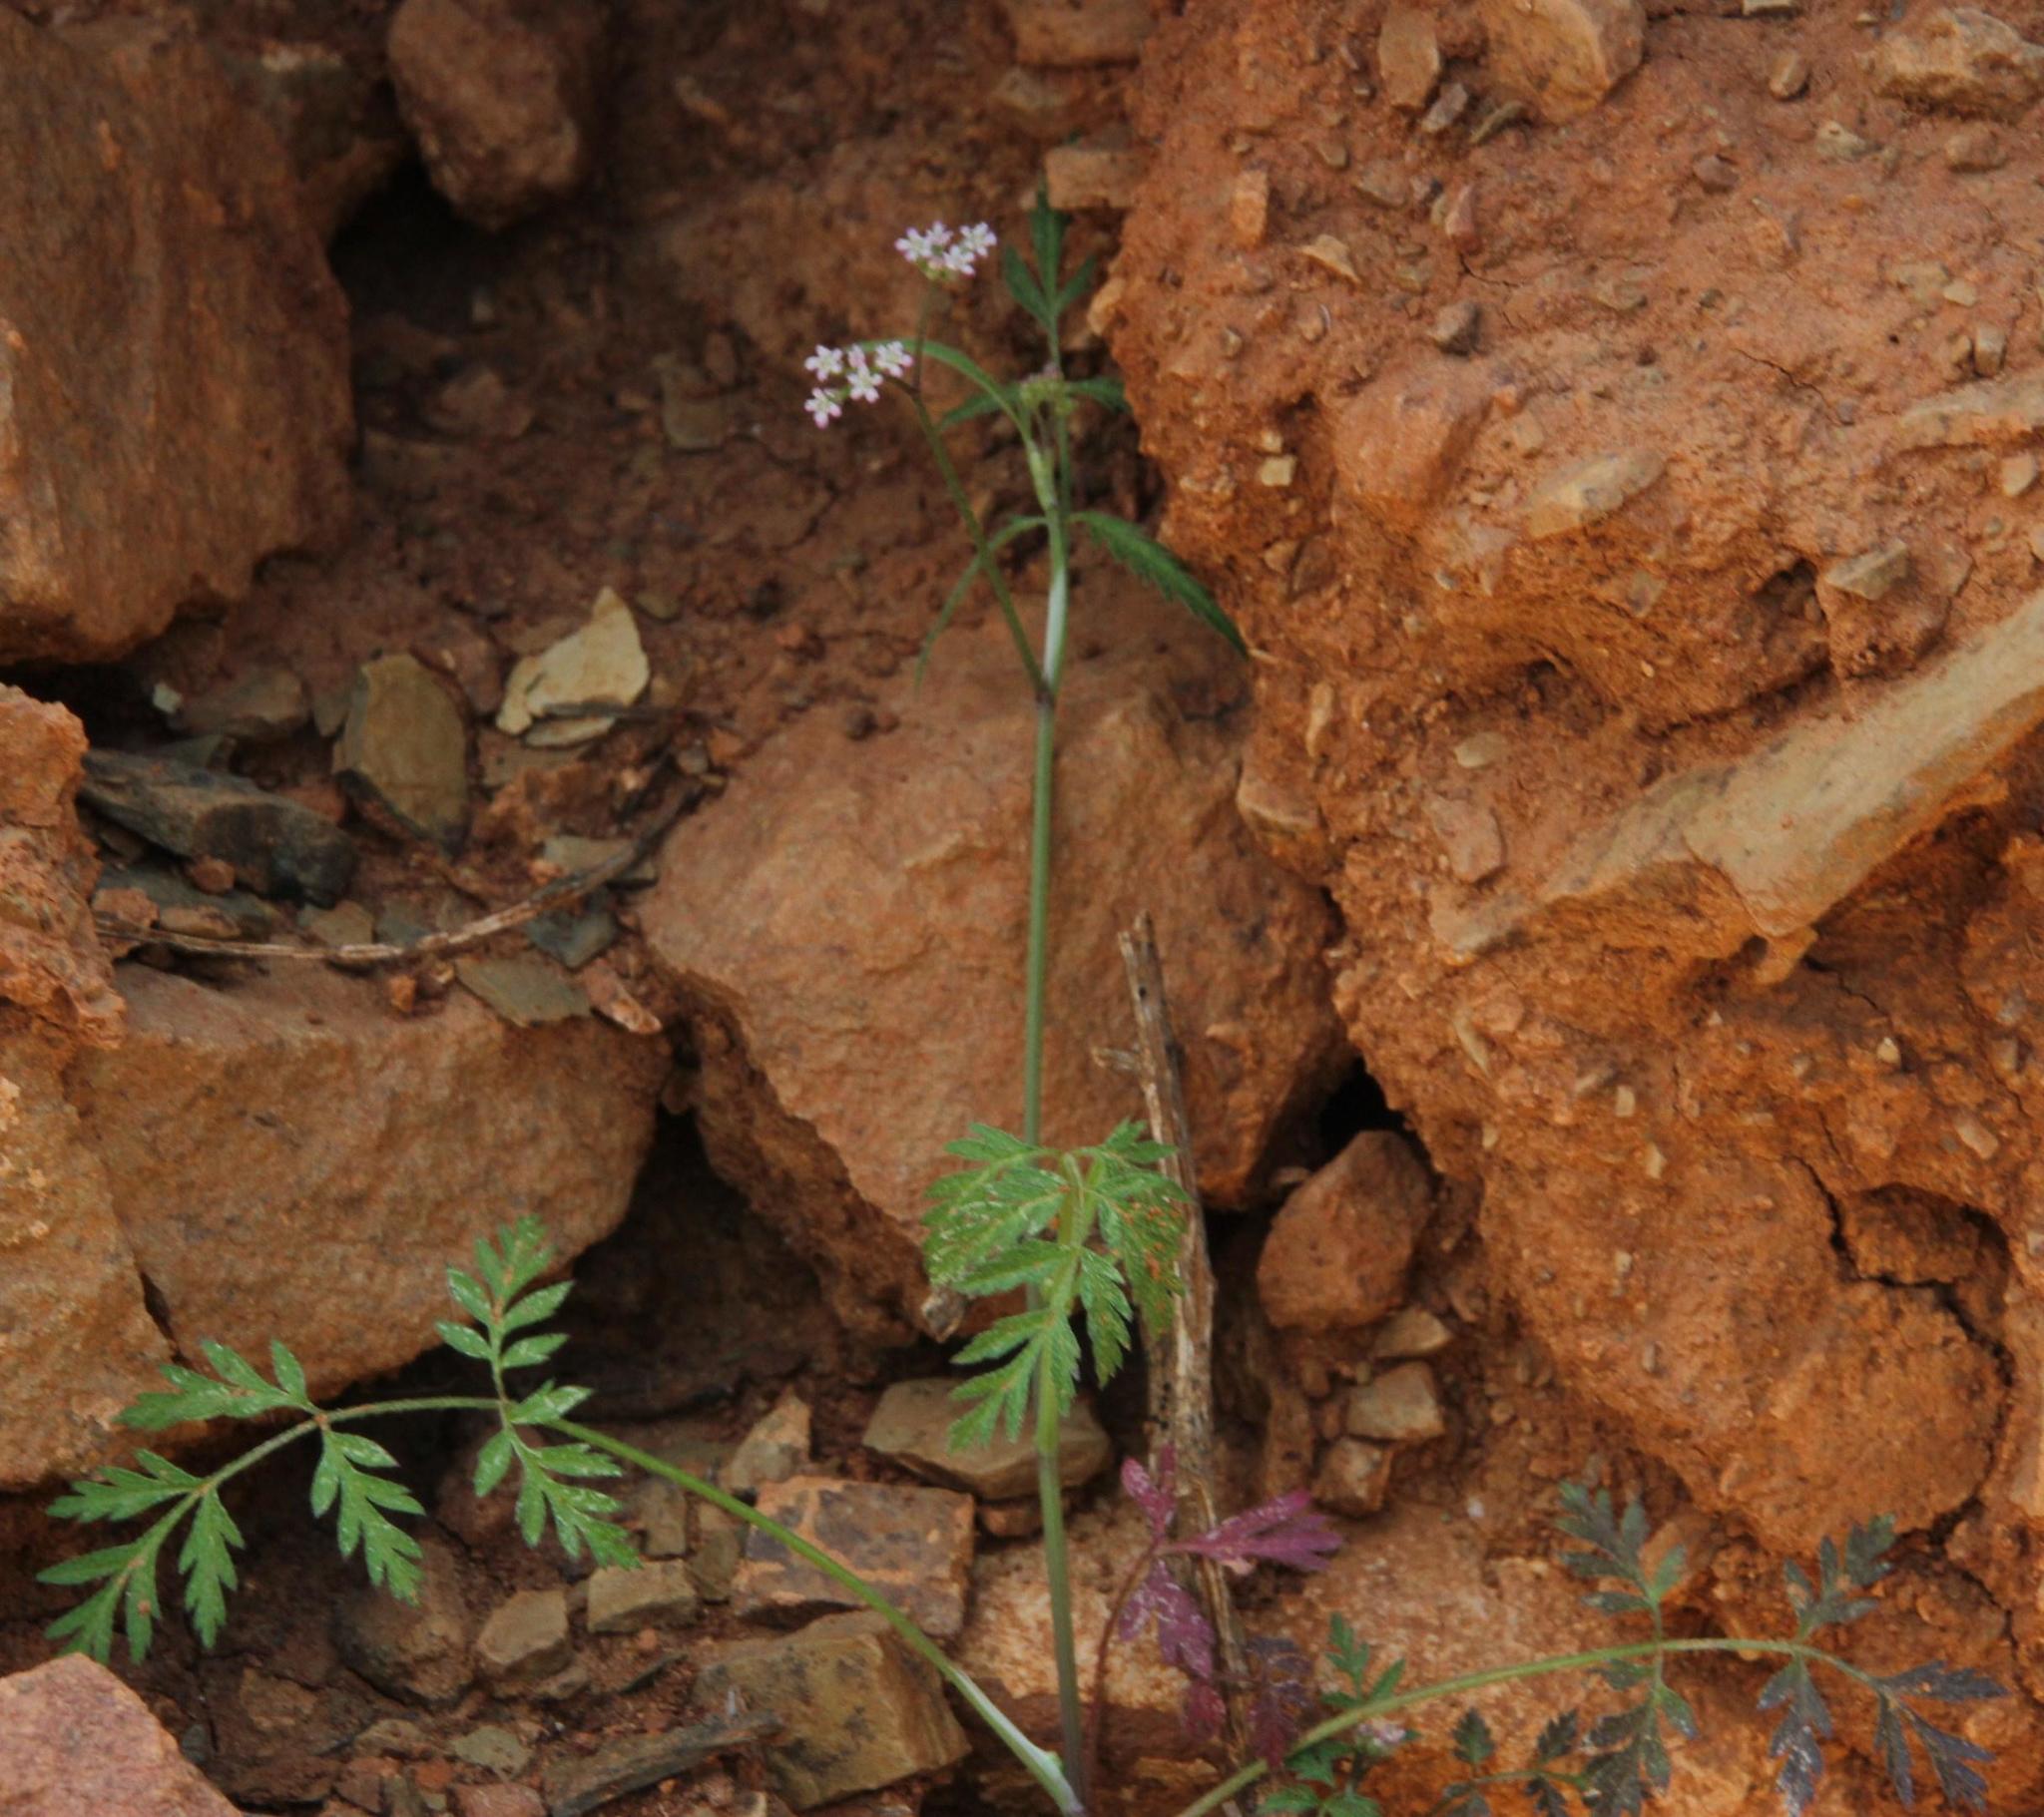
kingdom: Plantae
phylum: Tracheophyta
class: Magnoliopsida
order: Apiales
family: Apiaceae
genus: Torilis
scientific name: Torilis arvensis
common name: Spreading hedge-parsley
